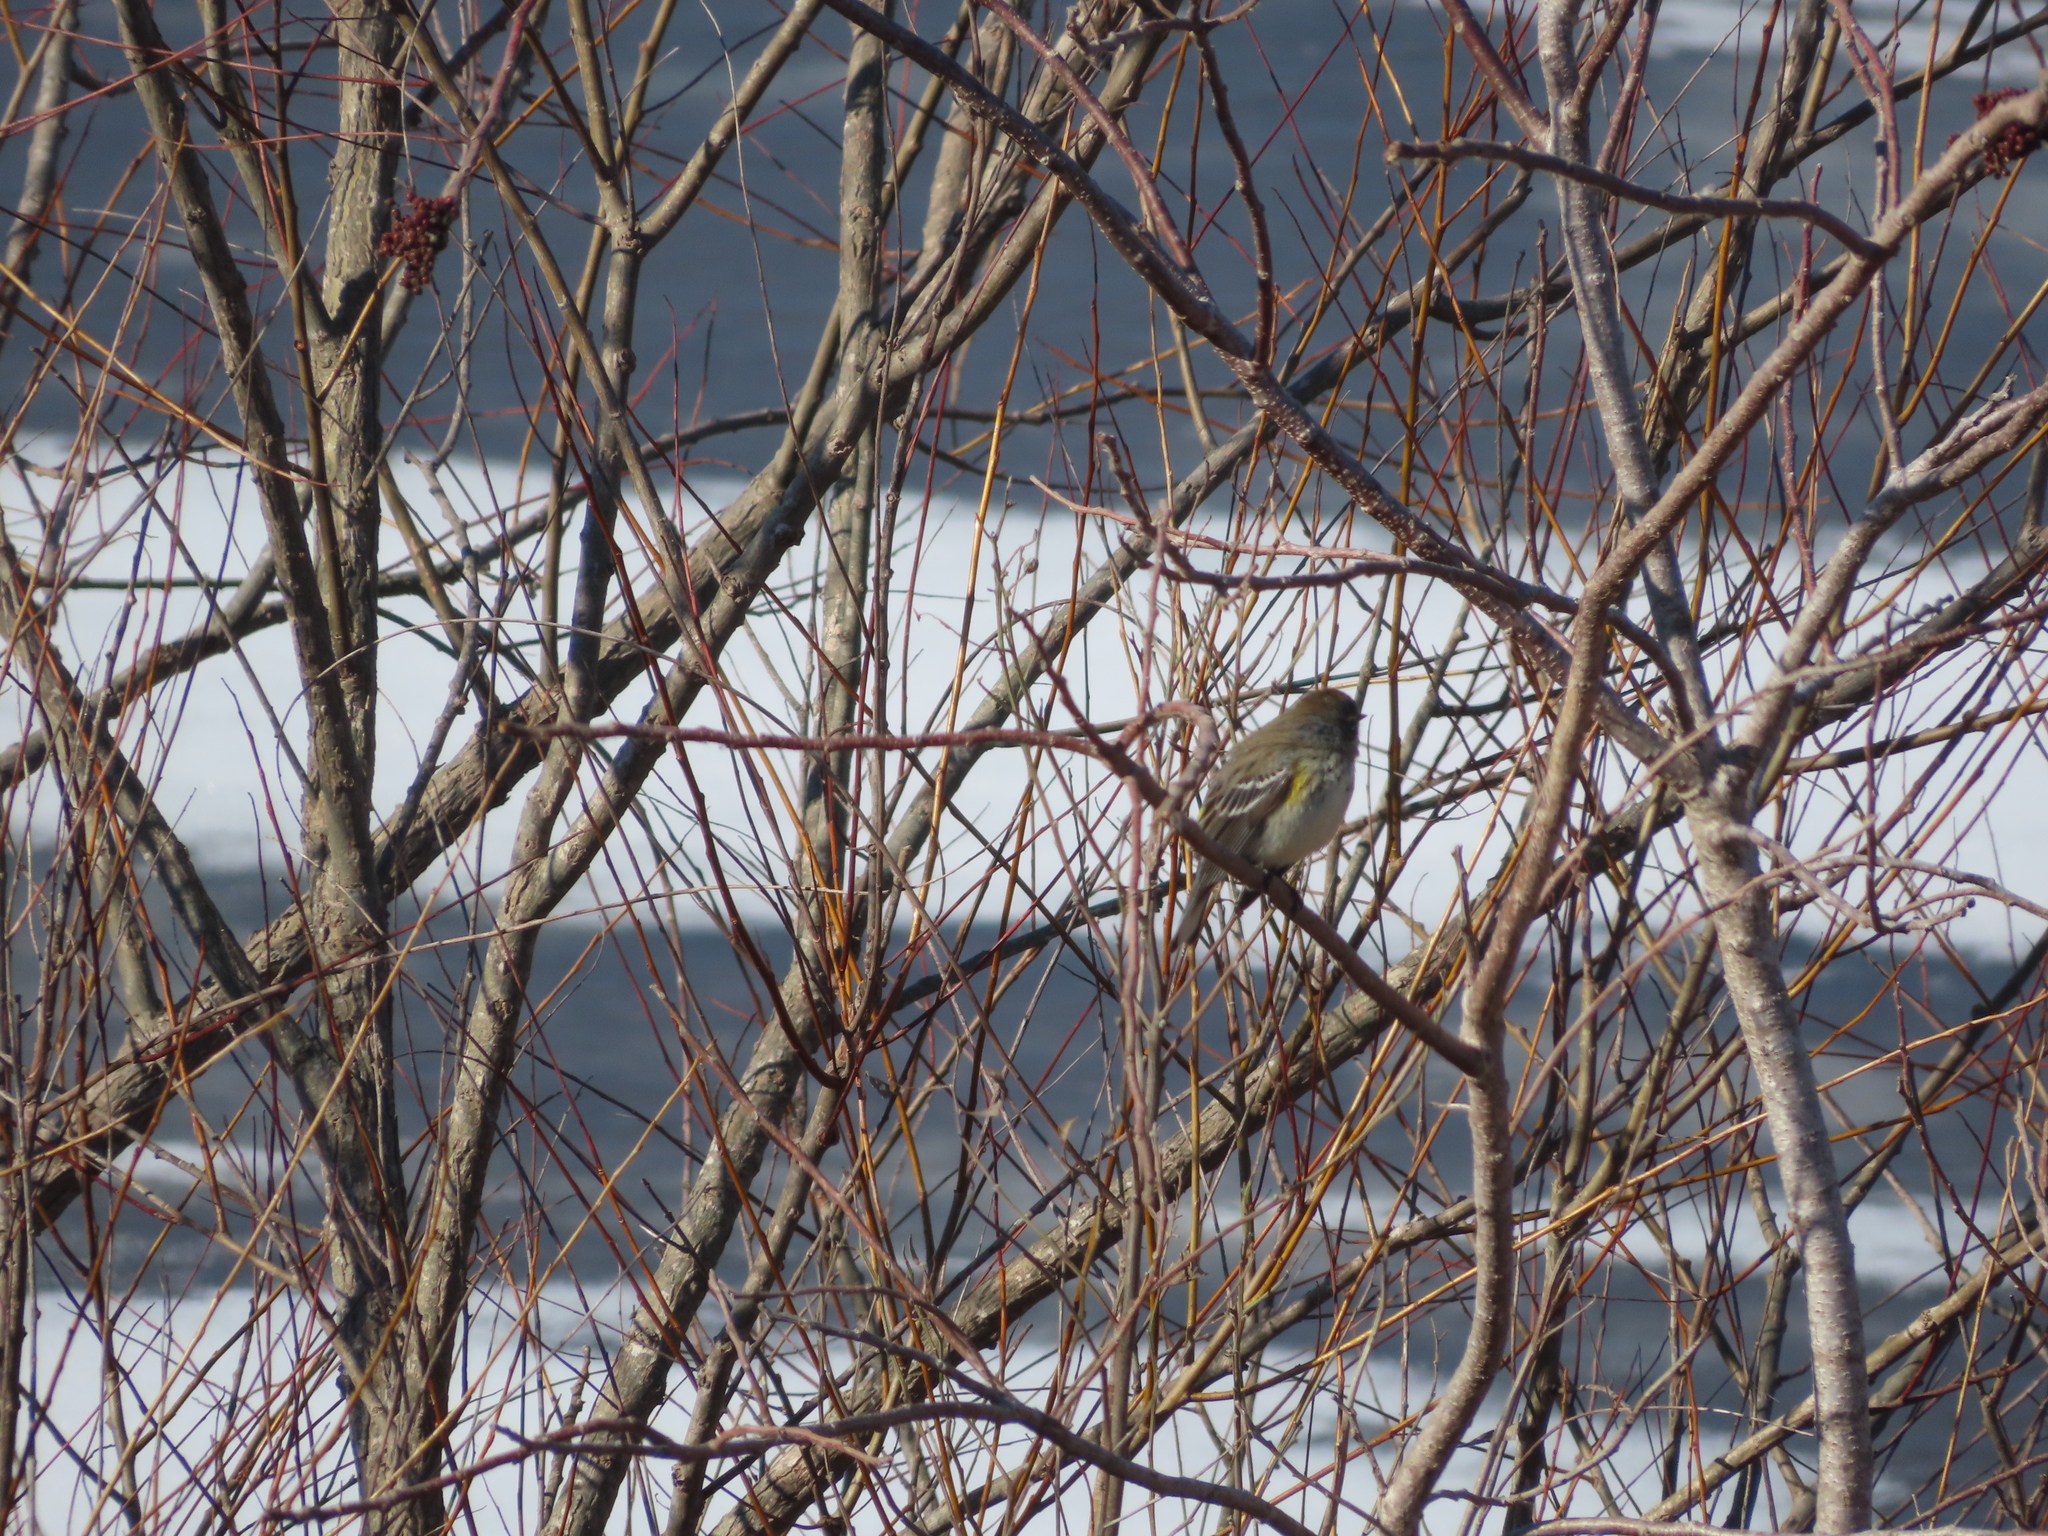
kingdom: Animalia
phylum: Chordata
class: Aves
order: Passeriformes
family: Parulidae
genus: Setophaga
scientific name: Setophaga coronata
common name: Myrtle warbler
